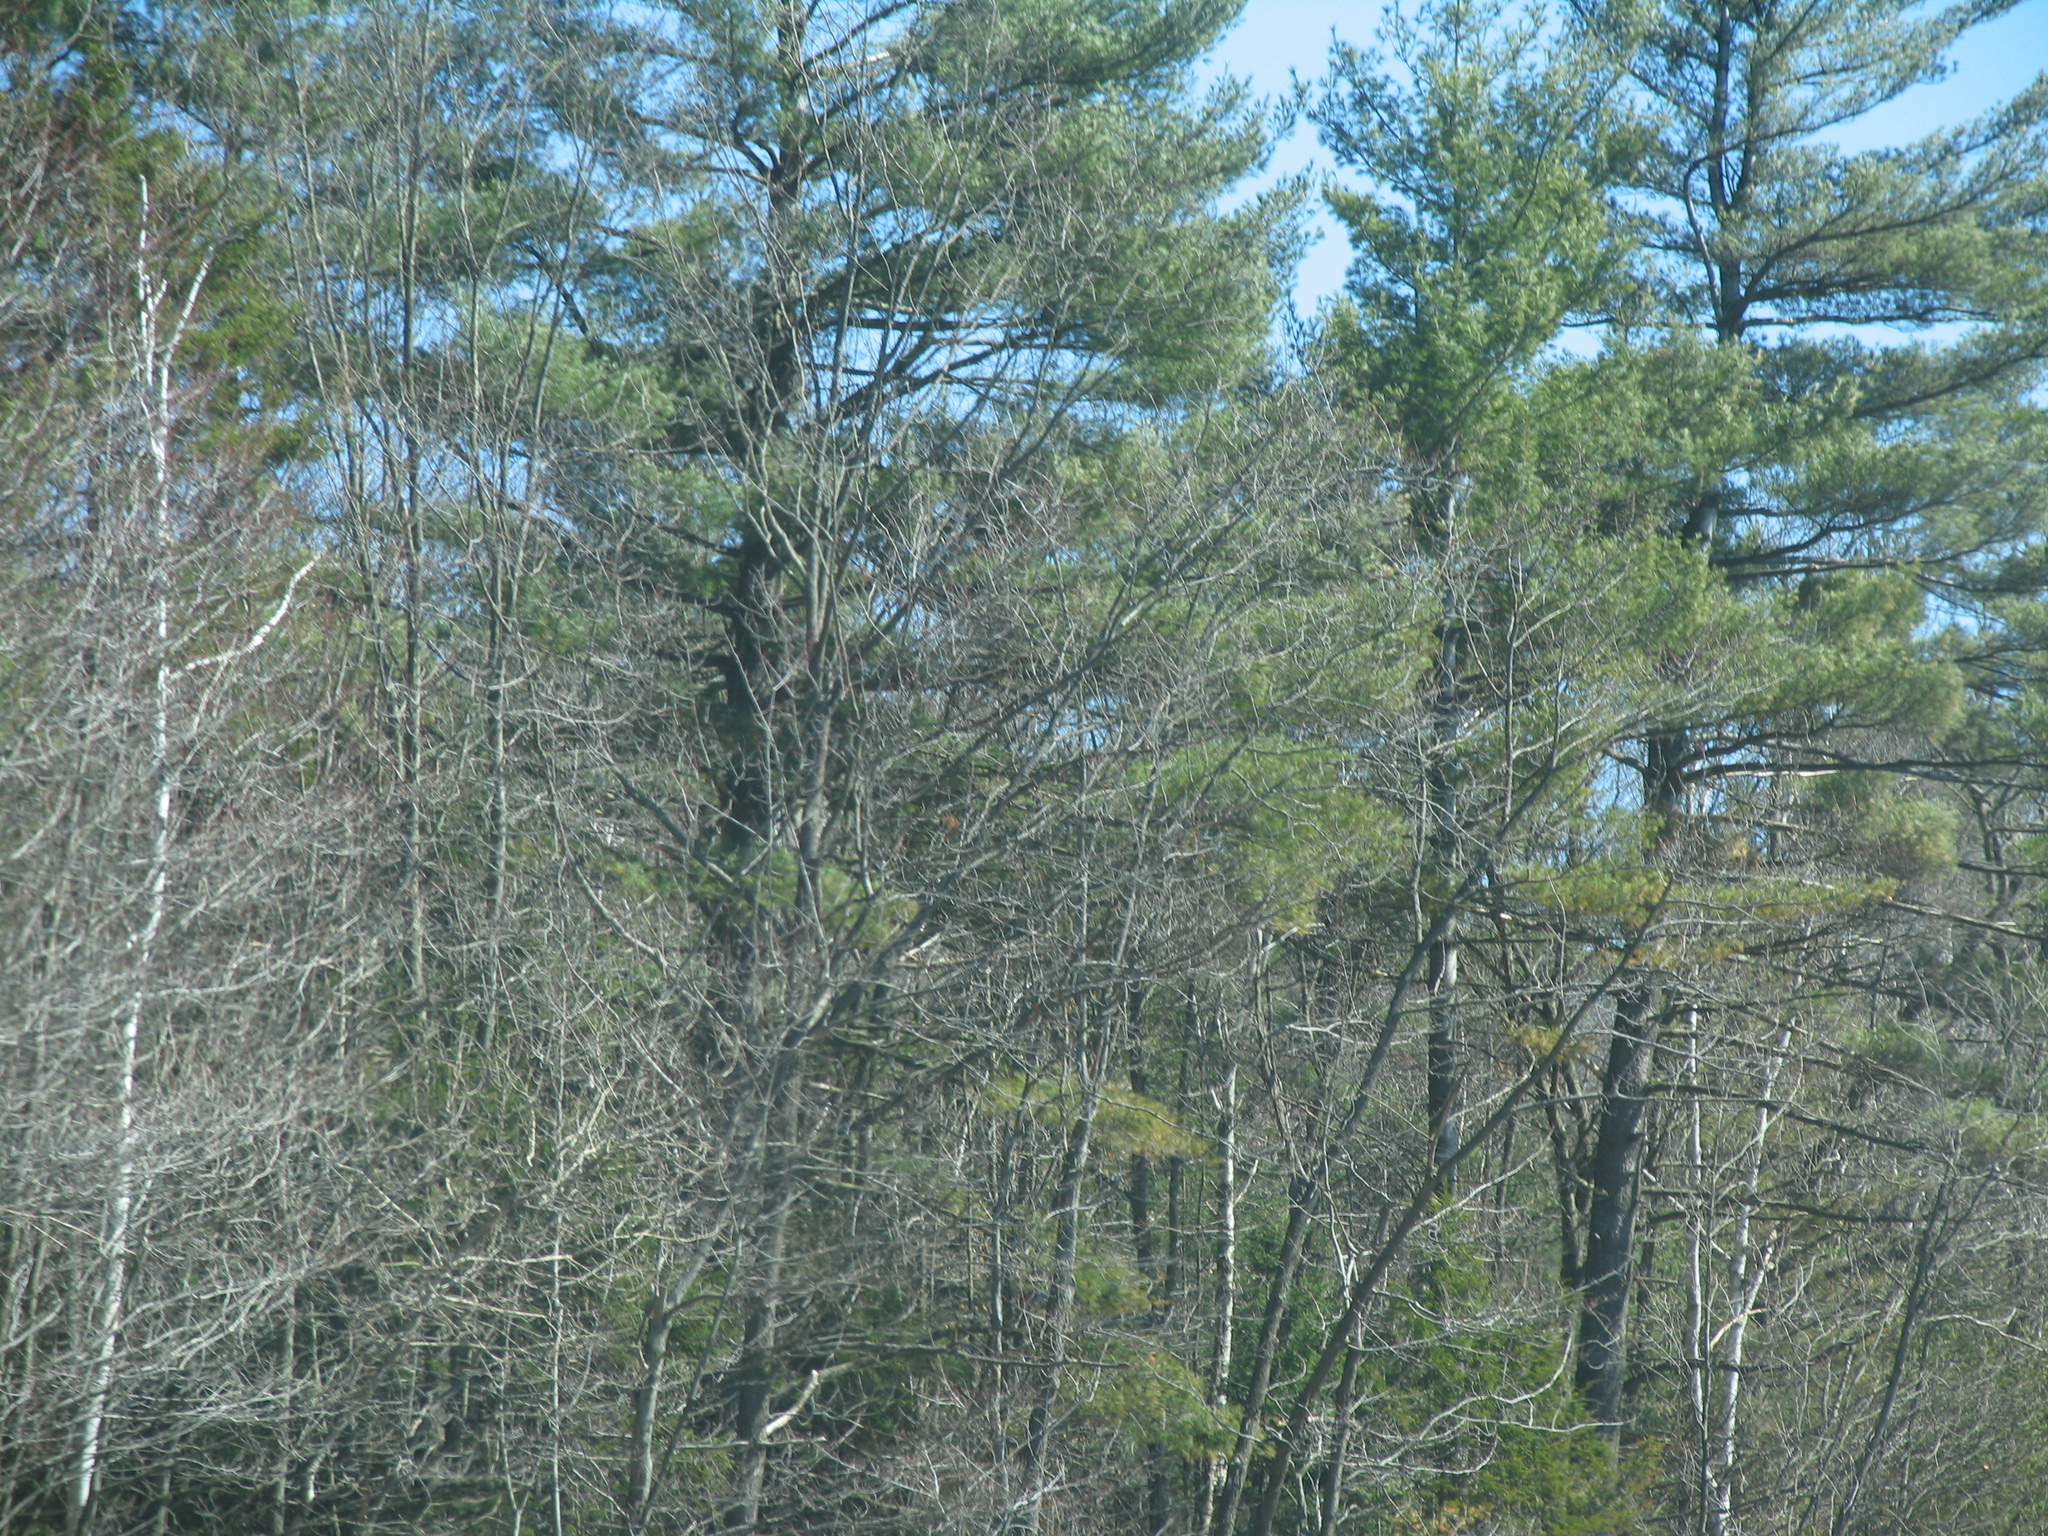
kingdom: Plantae
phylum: Tracheophyta
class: Pinopsida
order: Pinales
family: Pinaceae
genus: Pinus
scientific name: Pinus strobus
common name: Weymouth pine
